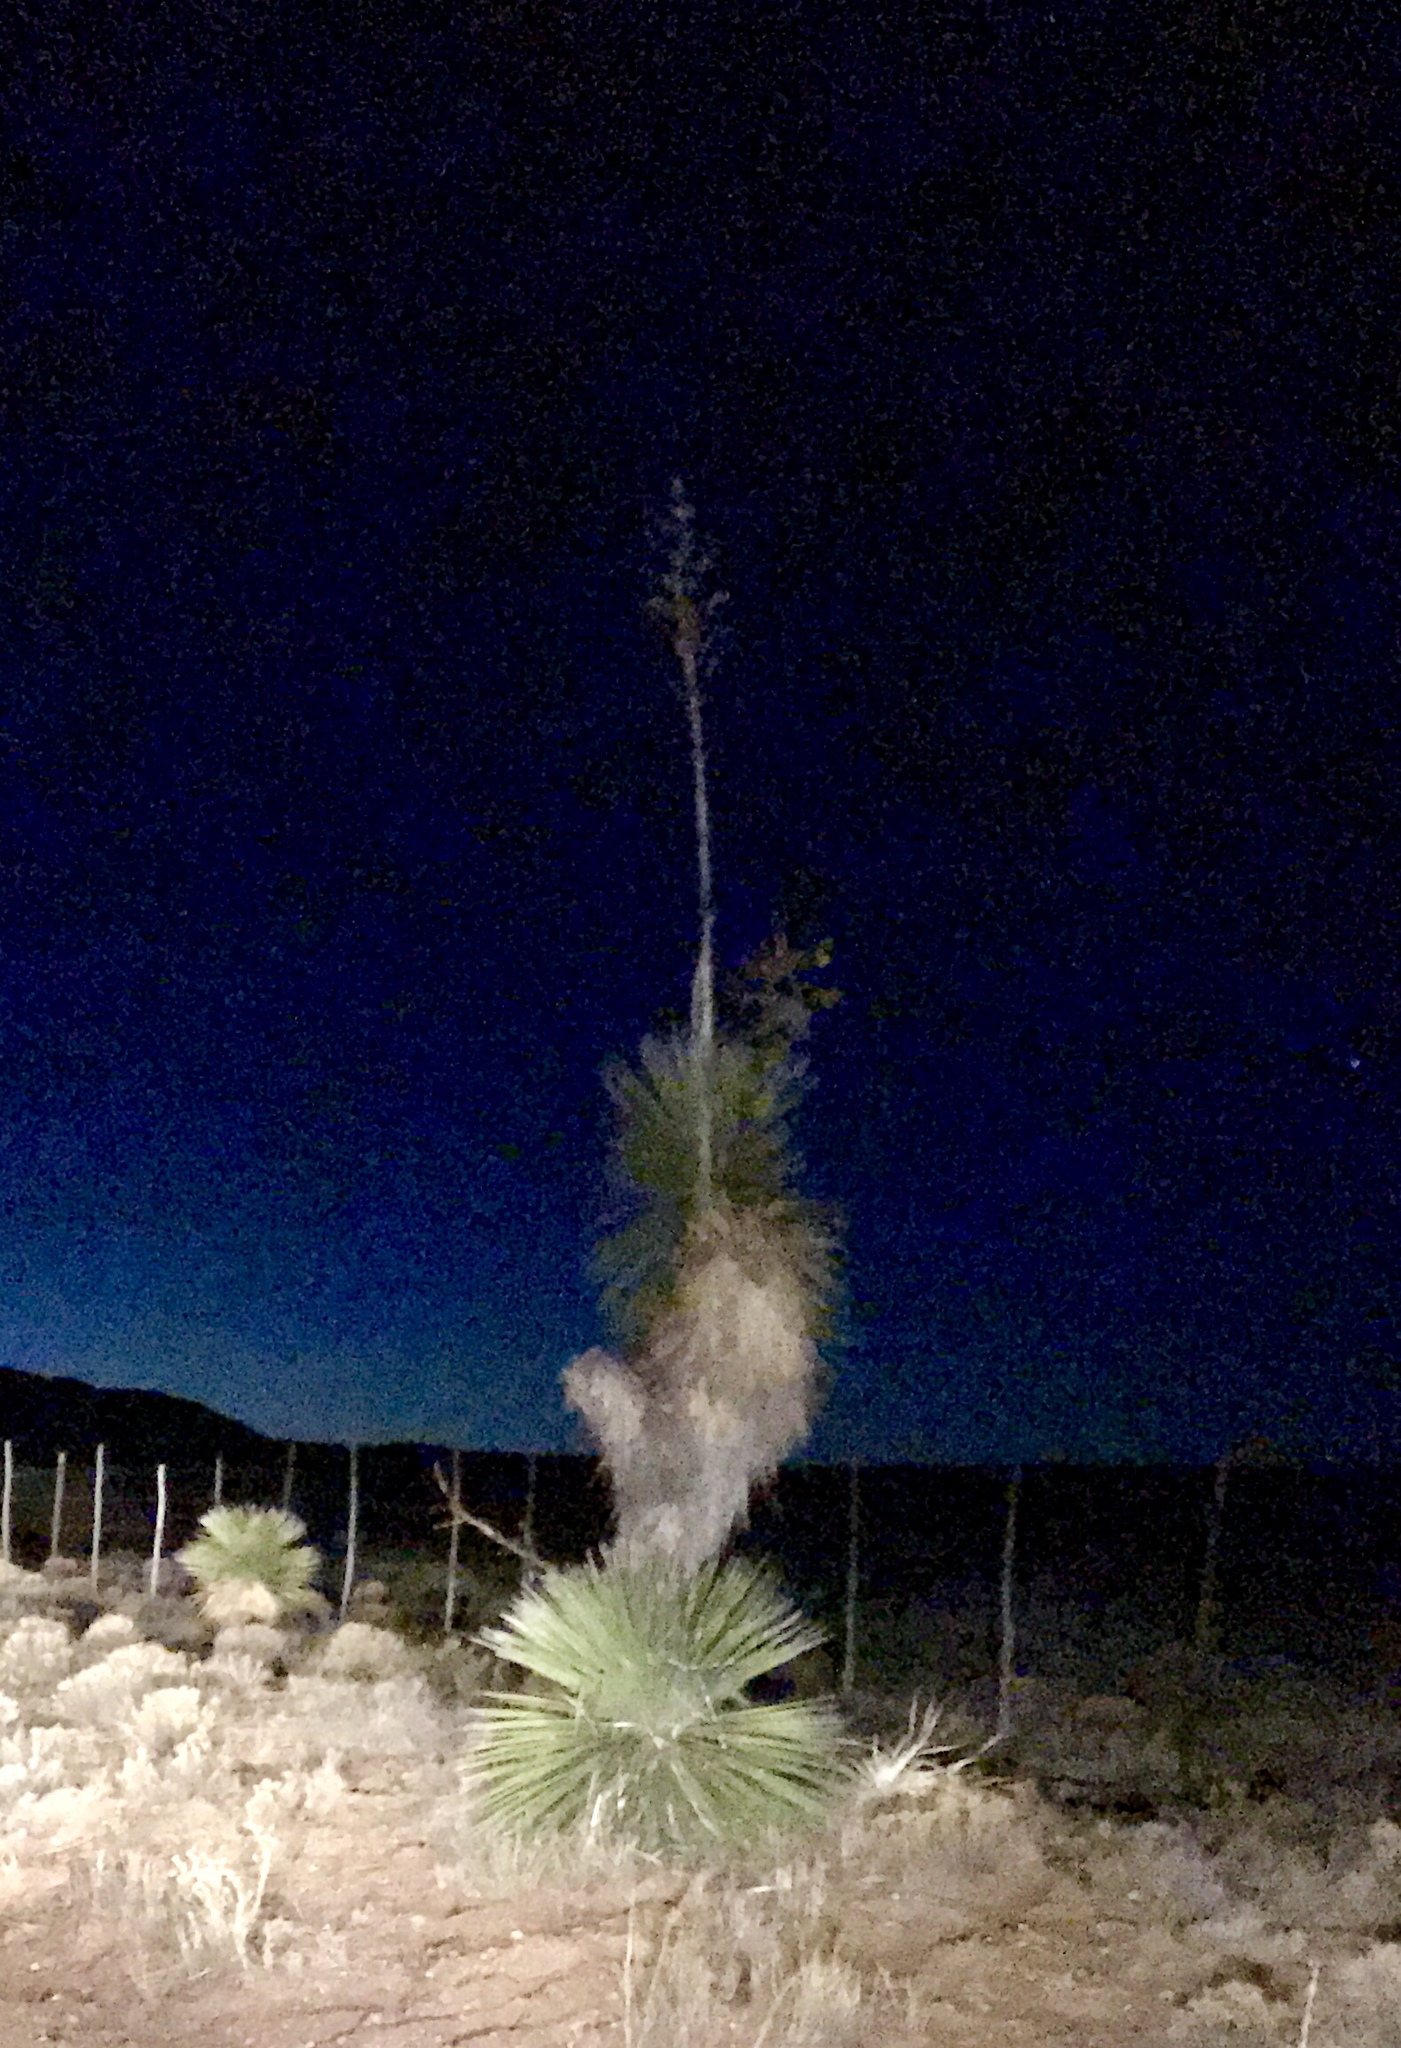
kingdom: Plantae
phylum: Tracheophyta
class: Liliopsida
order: Asparagales
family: Asparagaceae
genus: Yucca
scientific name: Yucca elata
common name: Palmella
